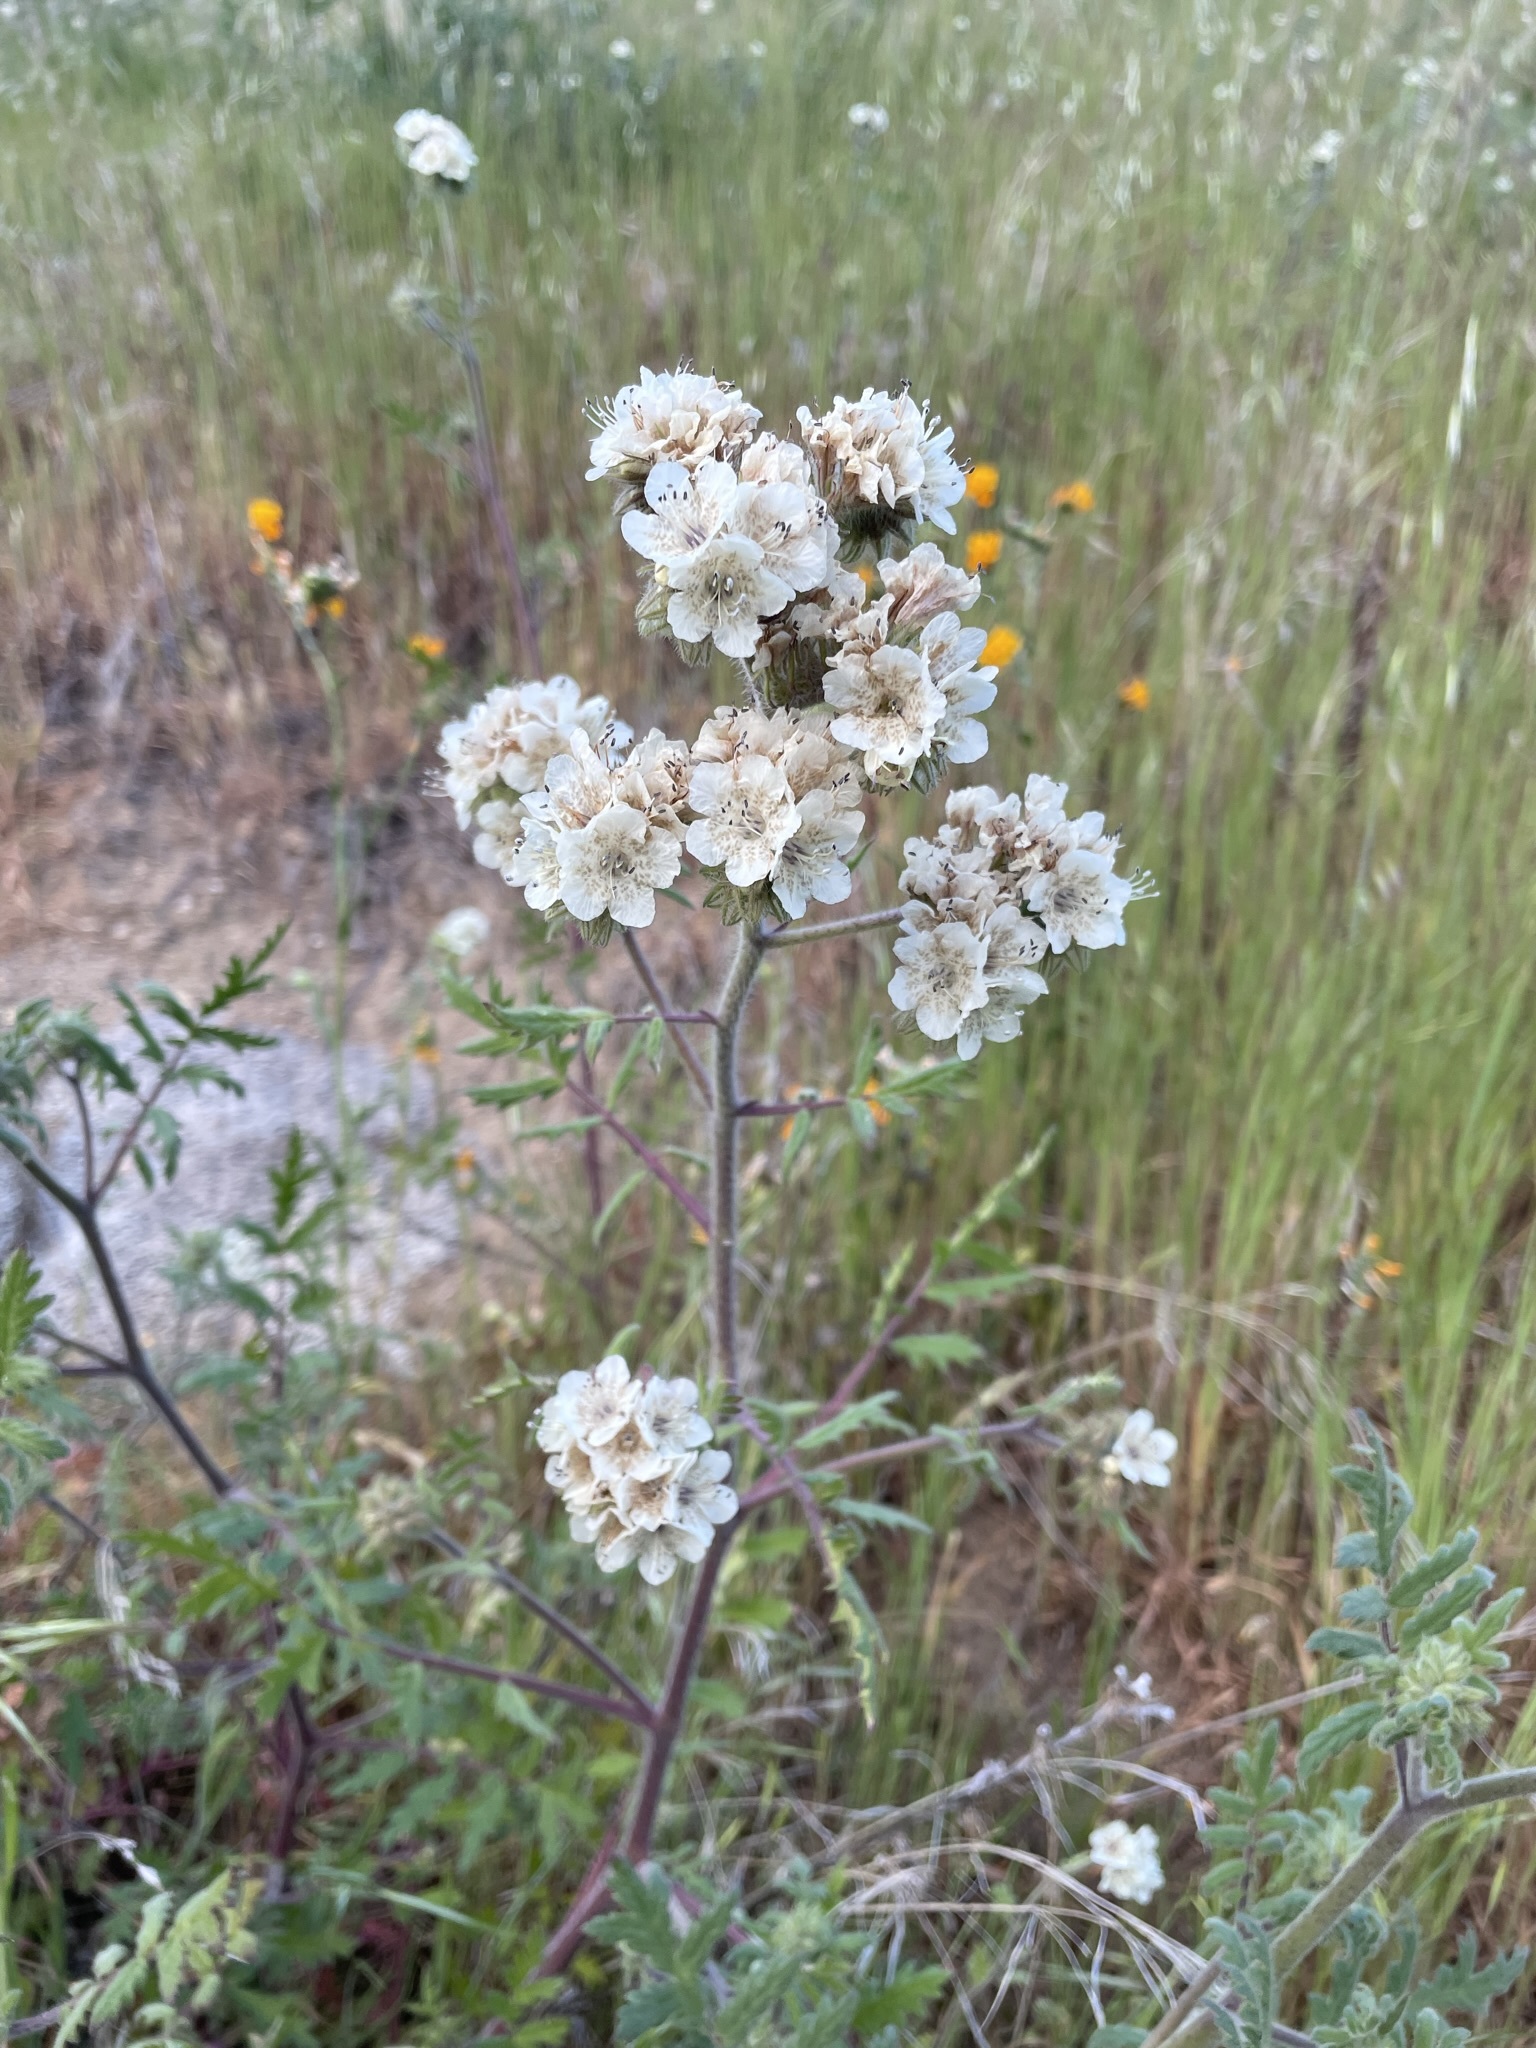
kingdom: Plantae
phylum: Tracheophyta
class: Magnoliopsida
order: Boraginales
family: Hydrophyllaceae
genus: Phacelia
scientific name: Phacelia cicutaria
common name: Caterpillar phacelia
